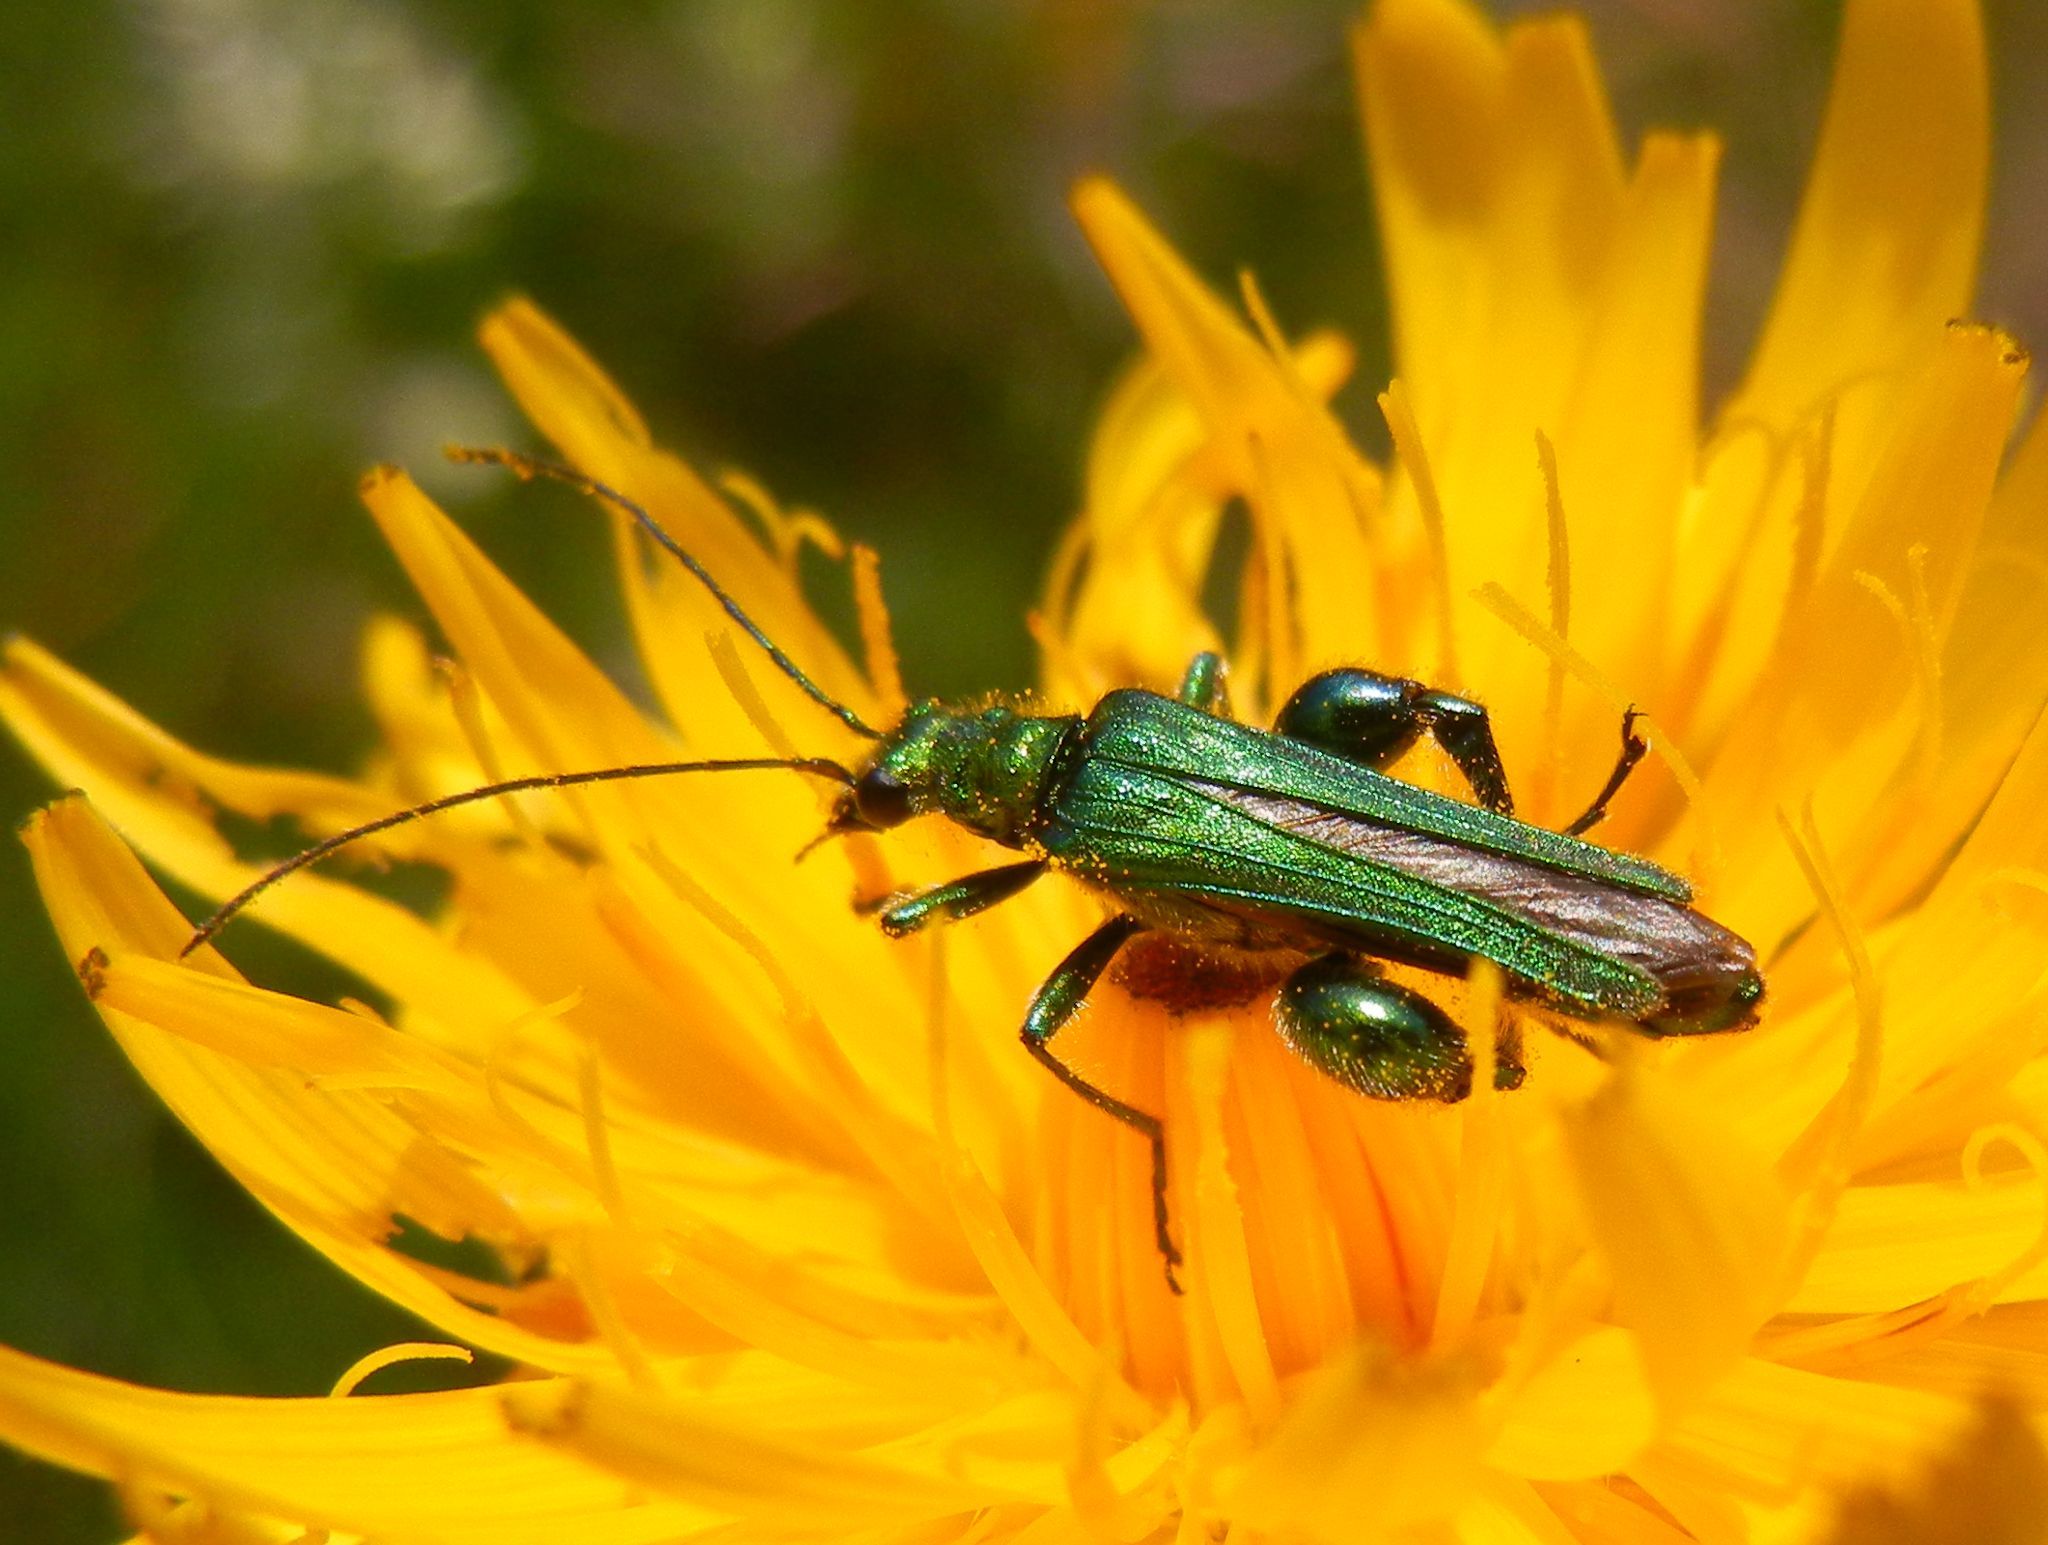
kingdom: Animalia
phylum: Arthropoda
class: Insecta
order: Coleoptera
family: Oedemeridae
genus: Oedemera
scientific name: Oedemera nobilis
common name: Swollen-thighed beetle
